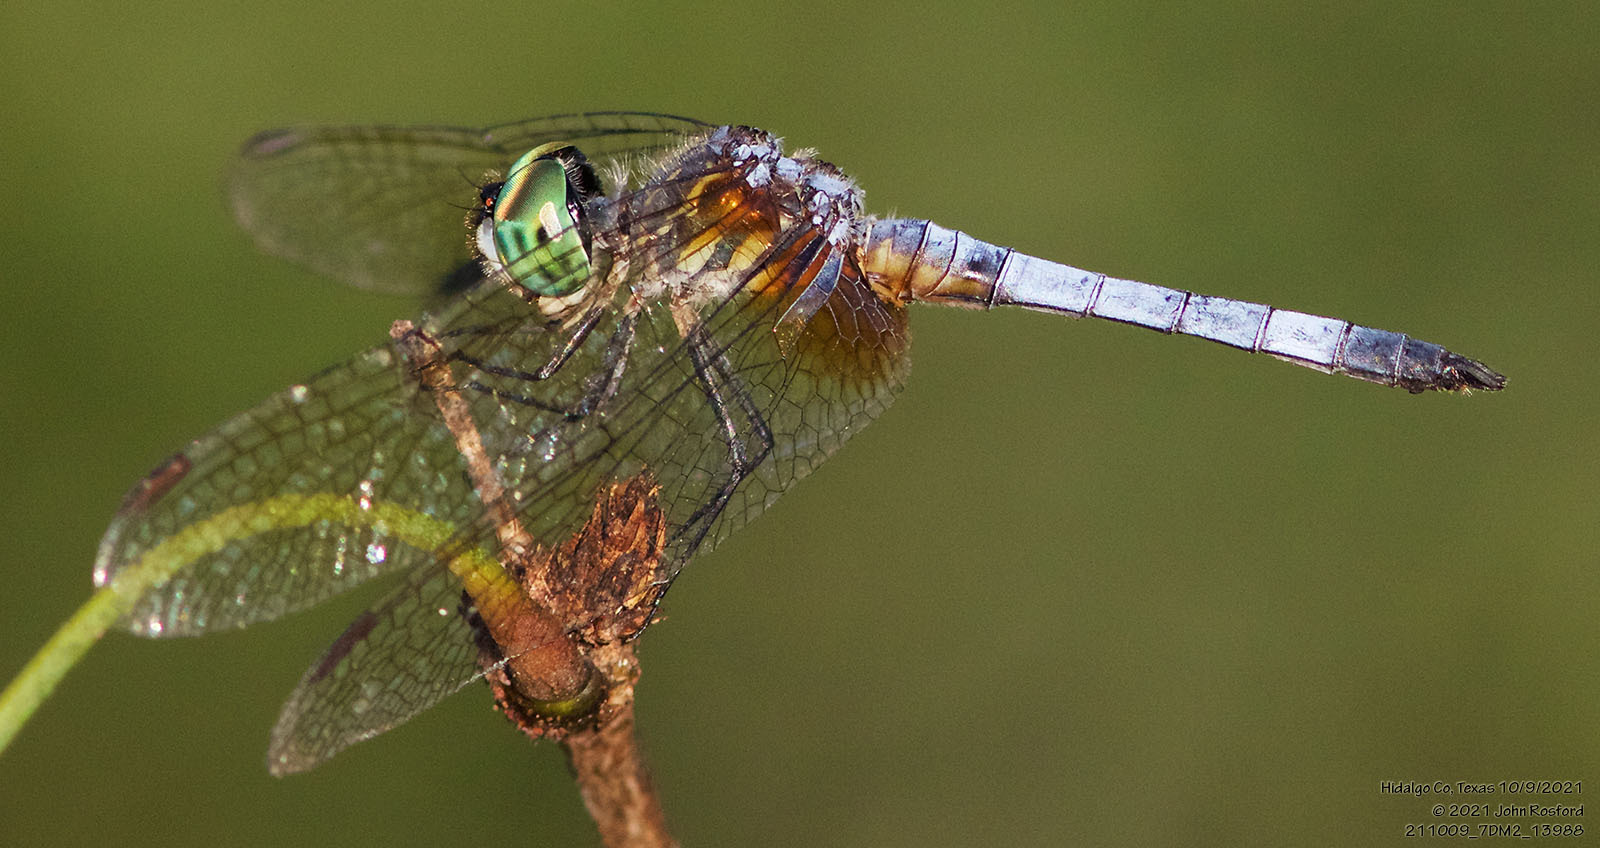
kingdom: Animalia
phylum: Arthropoda
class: Insecta
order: Odonata
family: Libellulidae
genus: Pachydiplax
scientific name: Pachydiplax longipennis
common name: Blue dasher
